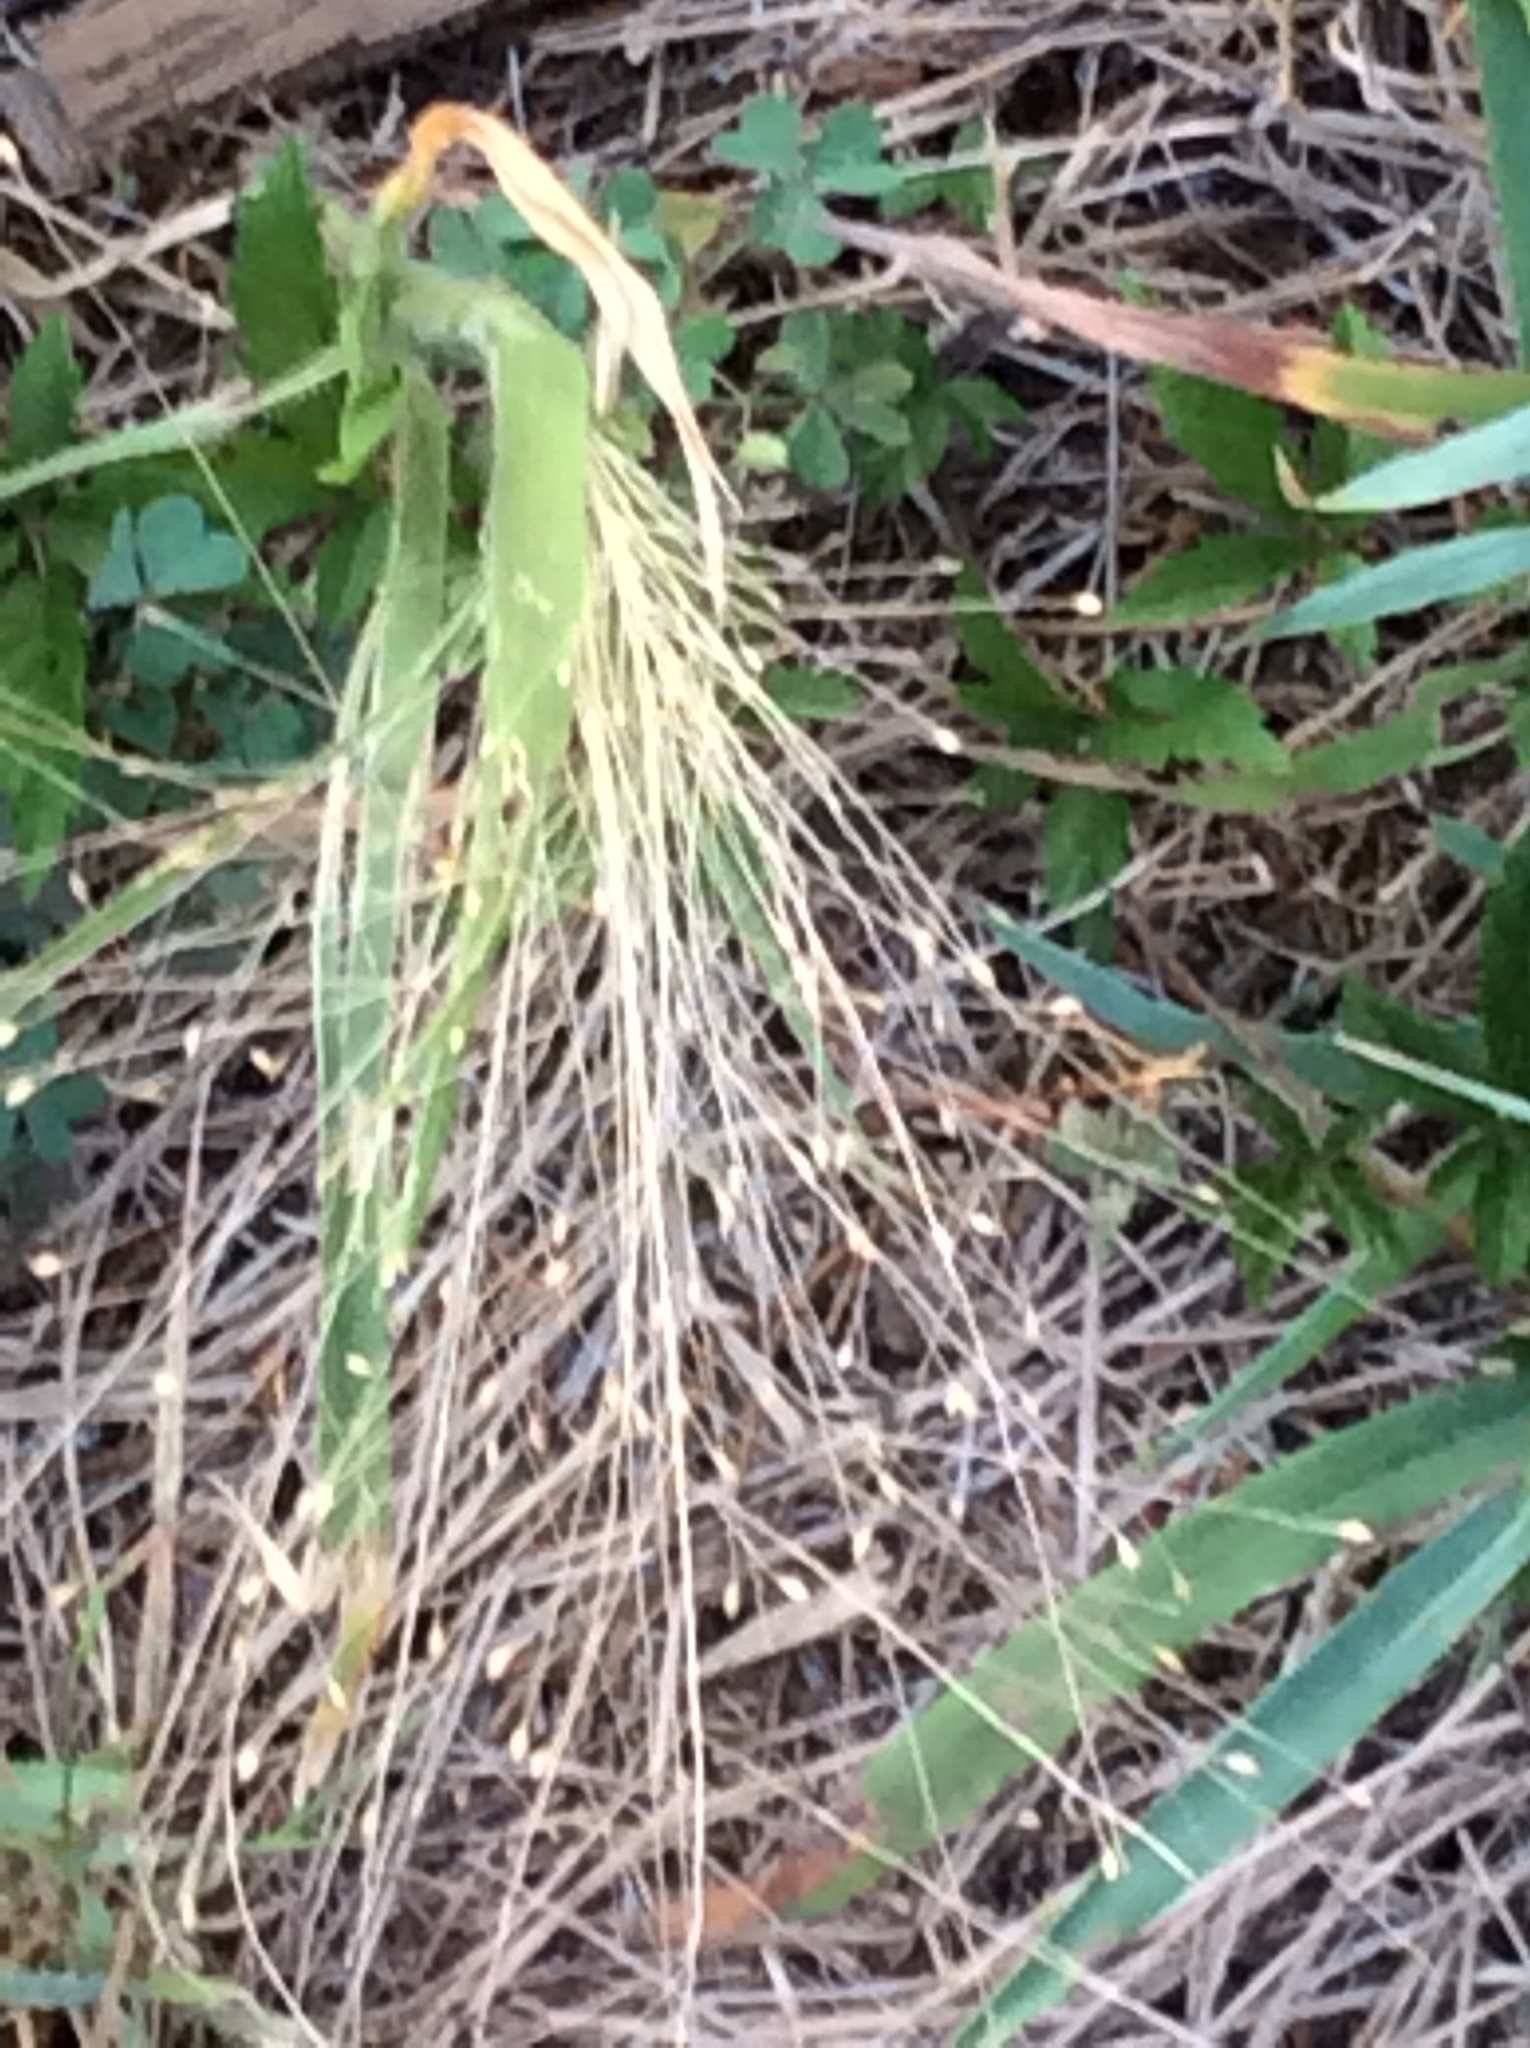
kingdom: Plantae
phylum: Tracheophyta
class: Liliopsida
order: Poales
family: Poaceae
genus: Panicum
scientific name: Panicum capillare
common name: Witch-grass
